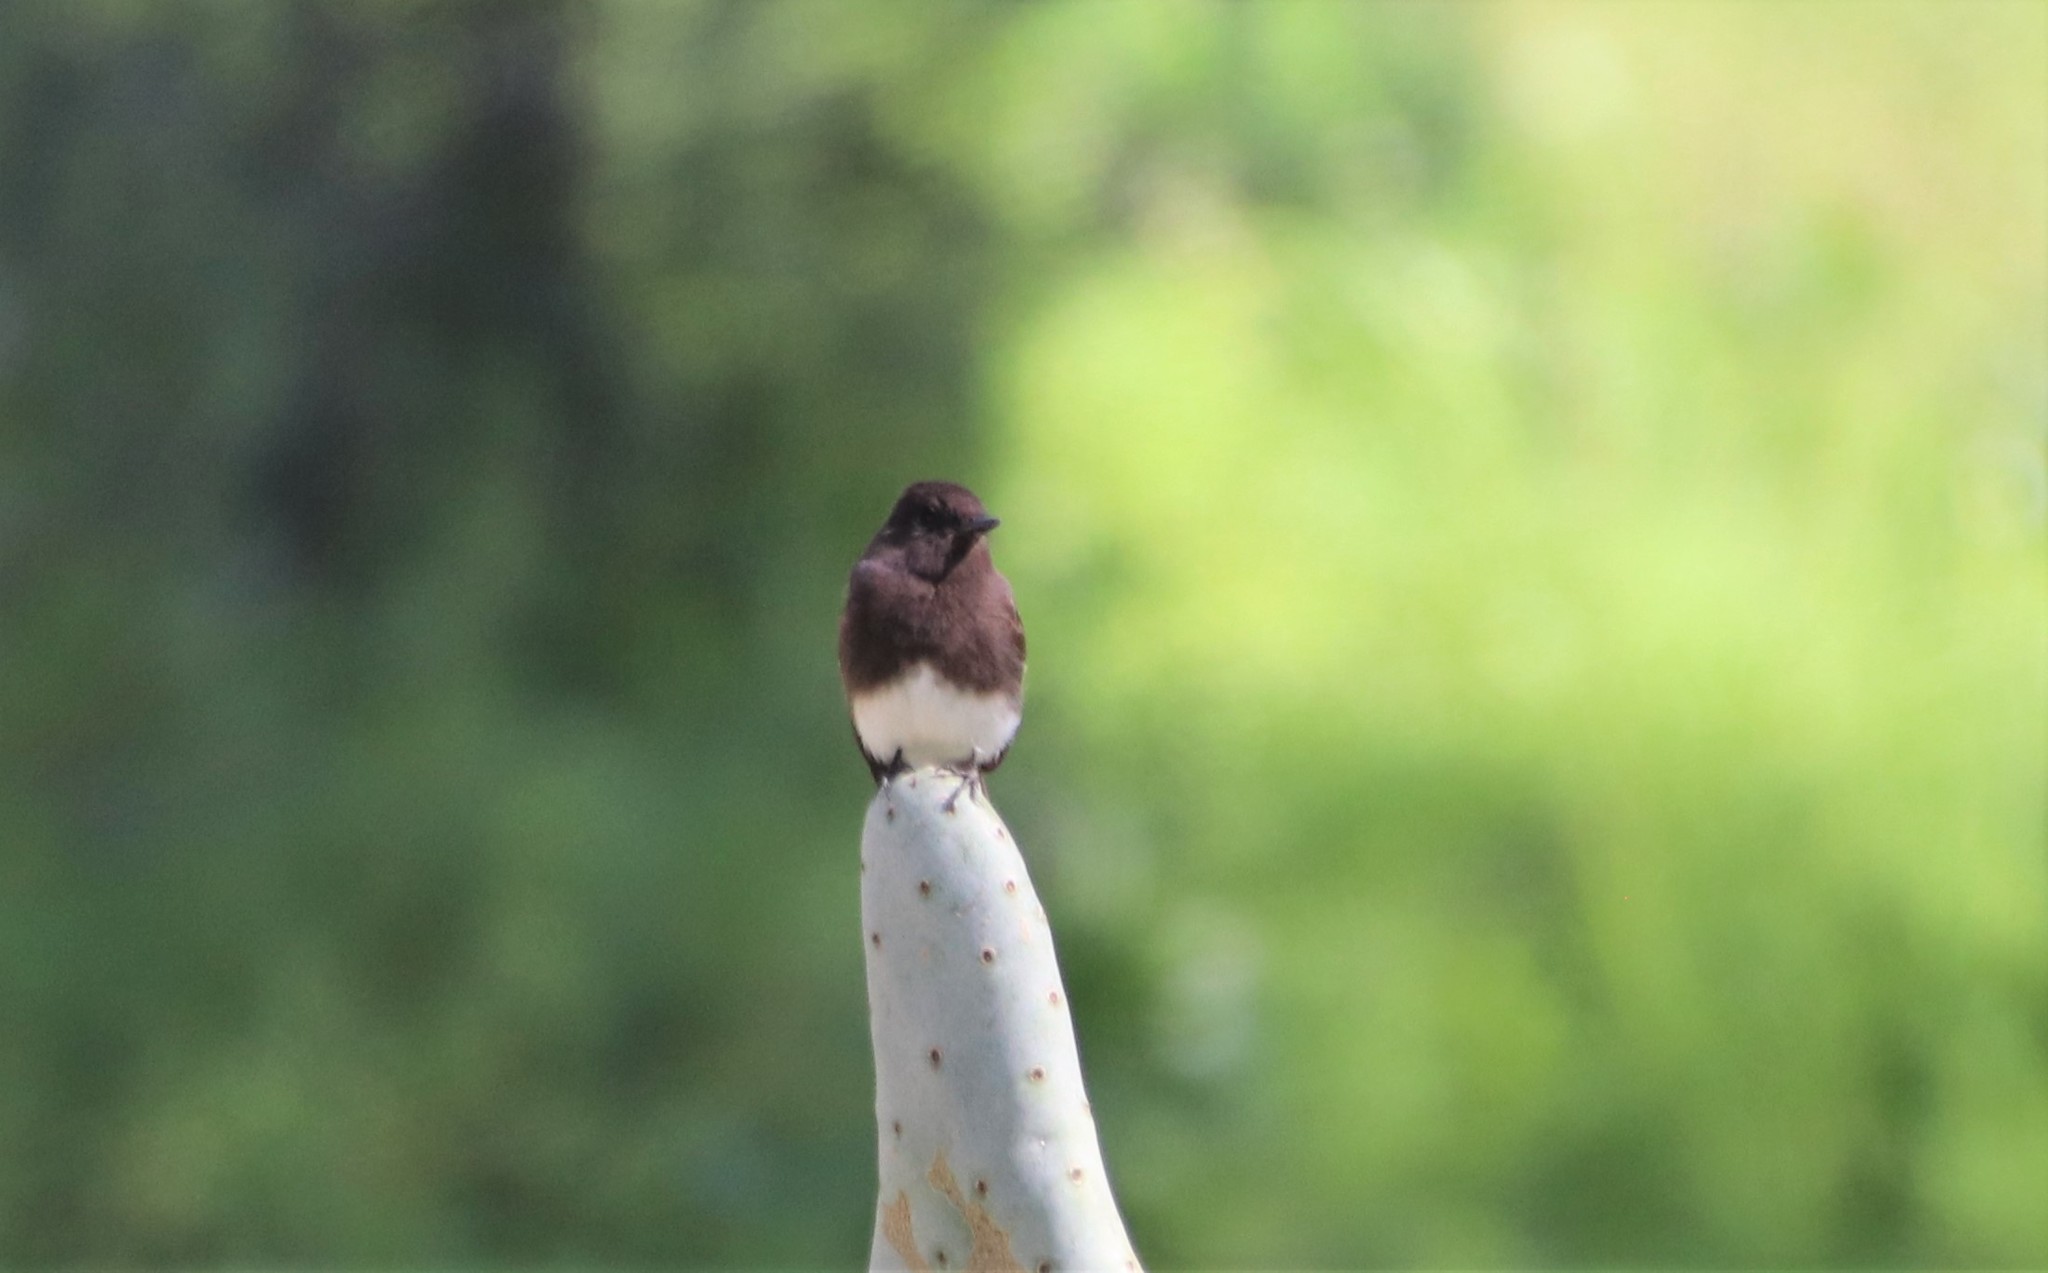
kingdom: Animalia
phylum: Chordata
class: Aves
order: Passeriformes
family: Tyrannidae
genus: Sayornis
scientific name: Sayornis nigricans
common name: Black phoebe
